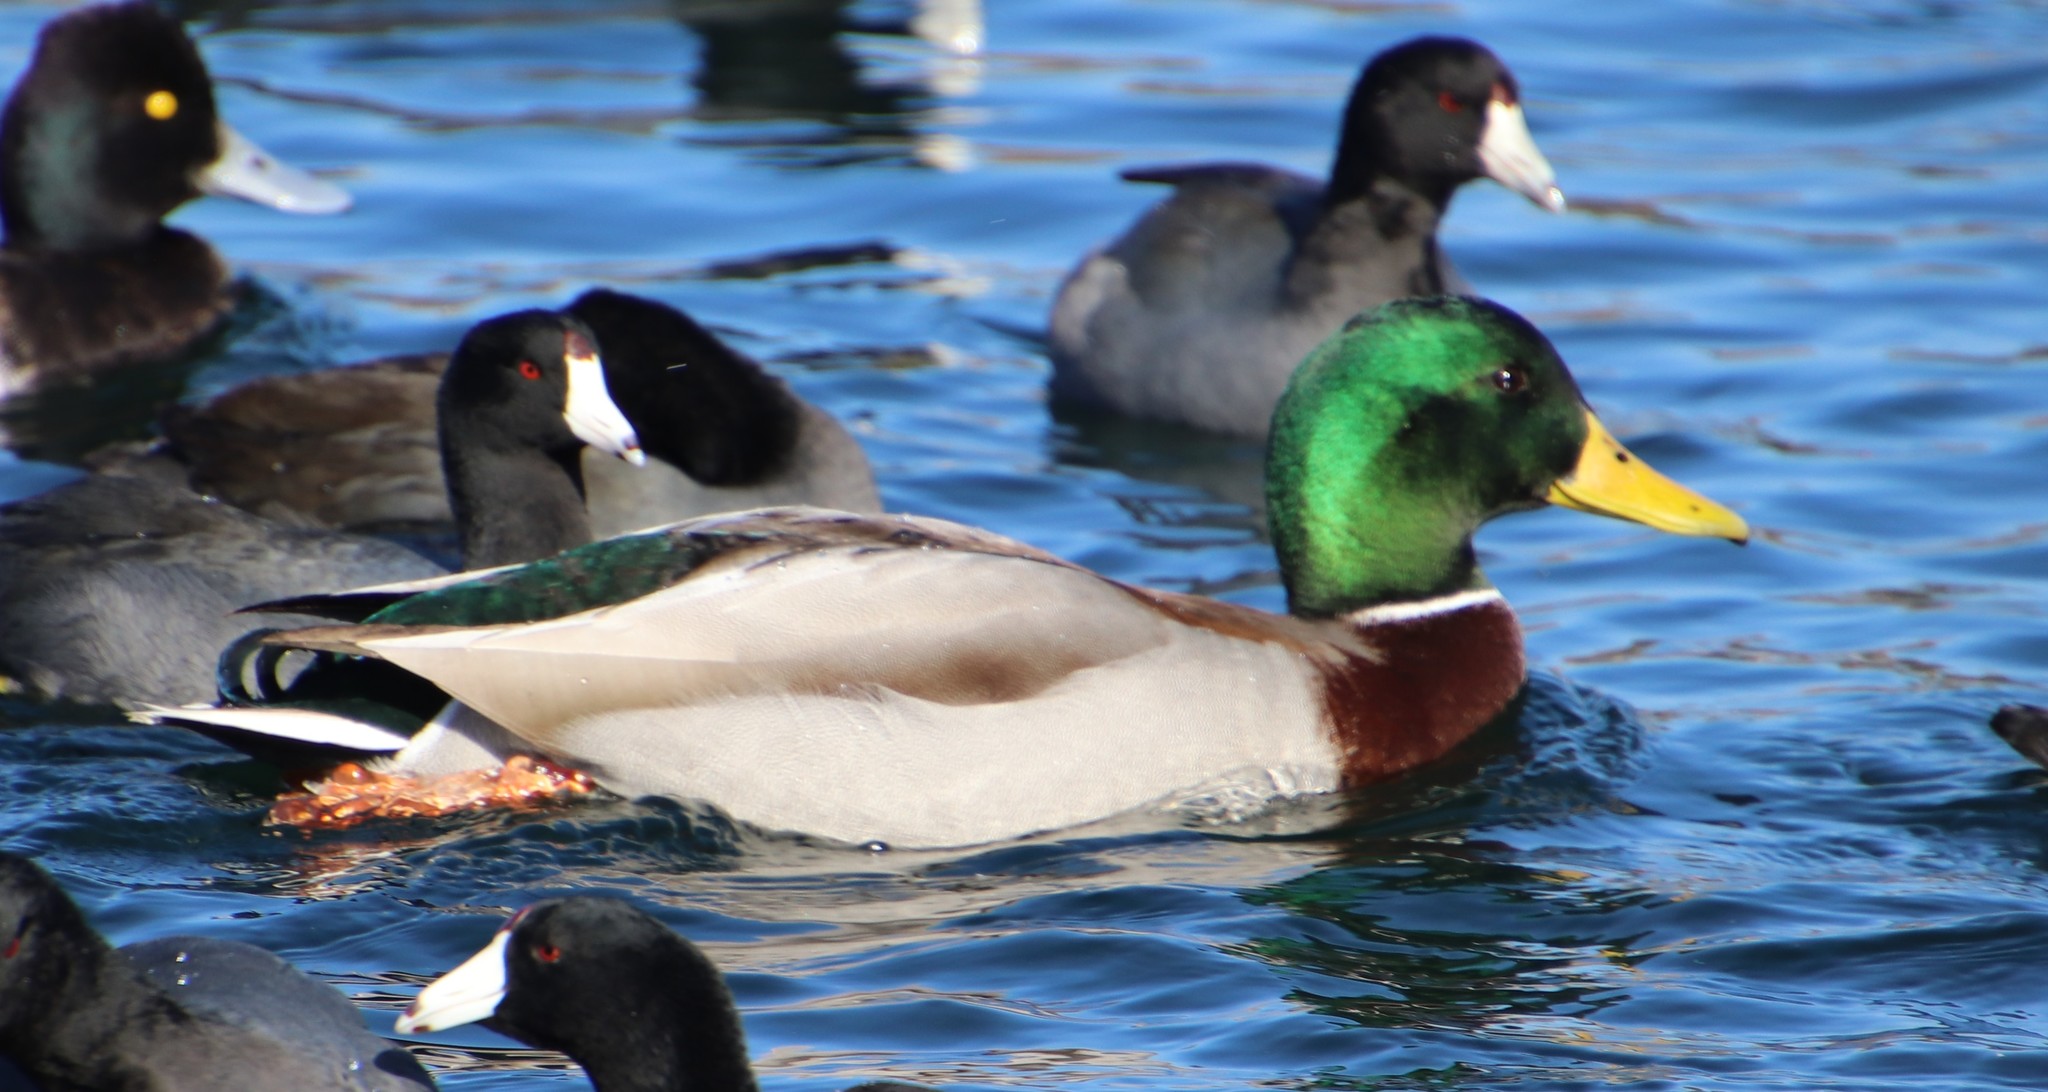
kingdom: Animalia
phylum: Chordata
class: Aves
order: Anseriformes
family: Anatidae
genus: Anas
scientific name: Anas platyrhynchos
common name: Mallard
